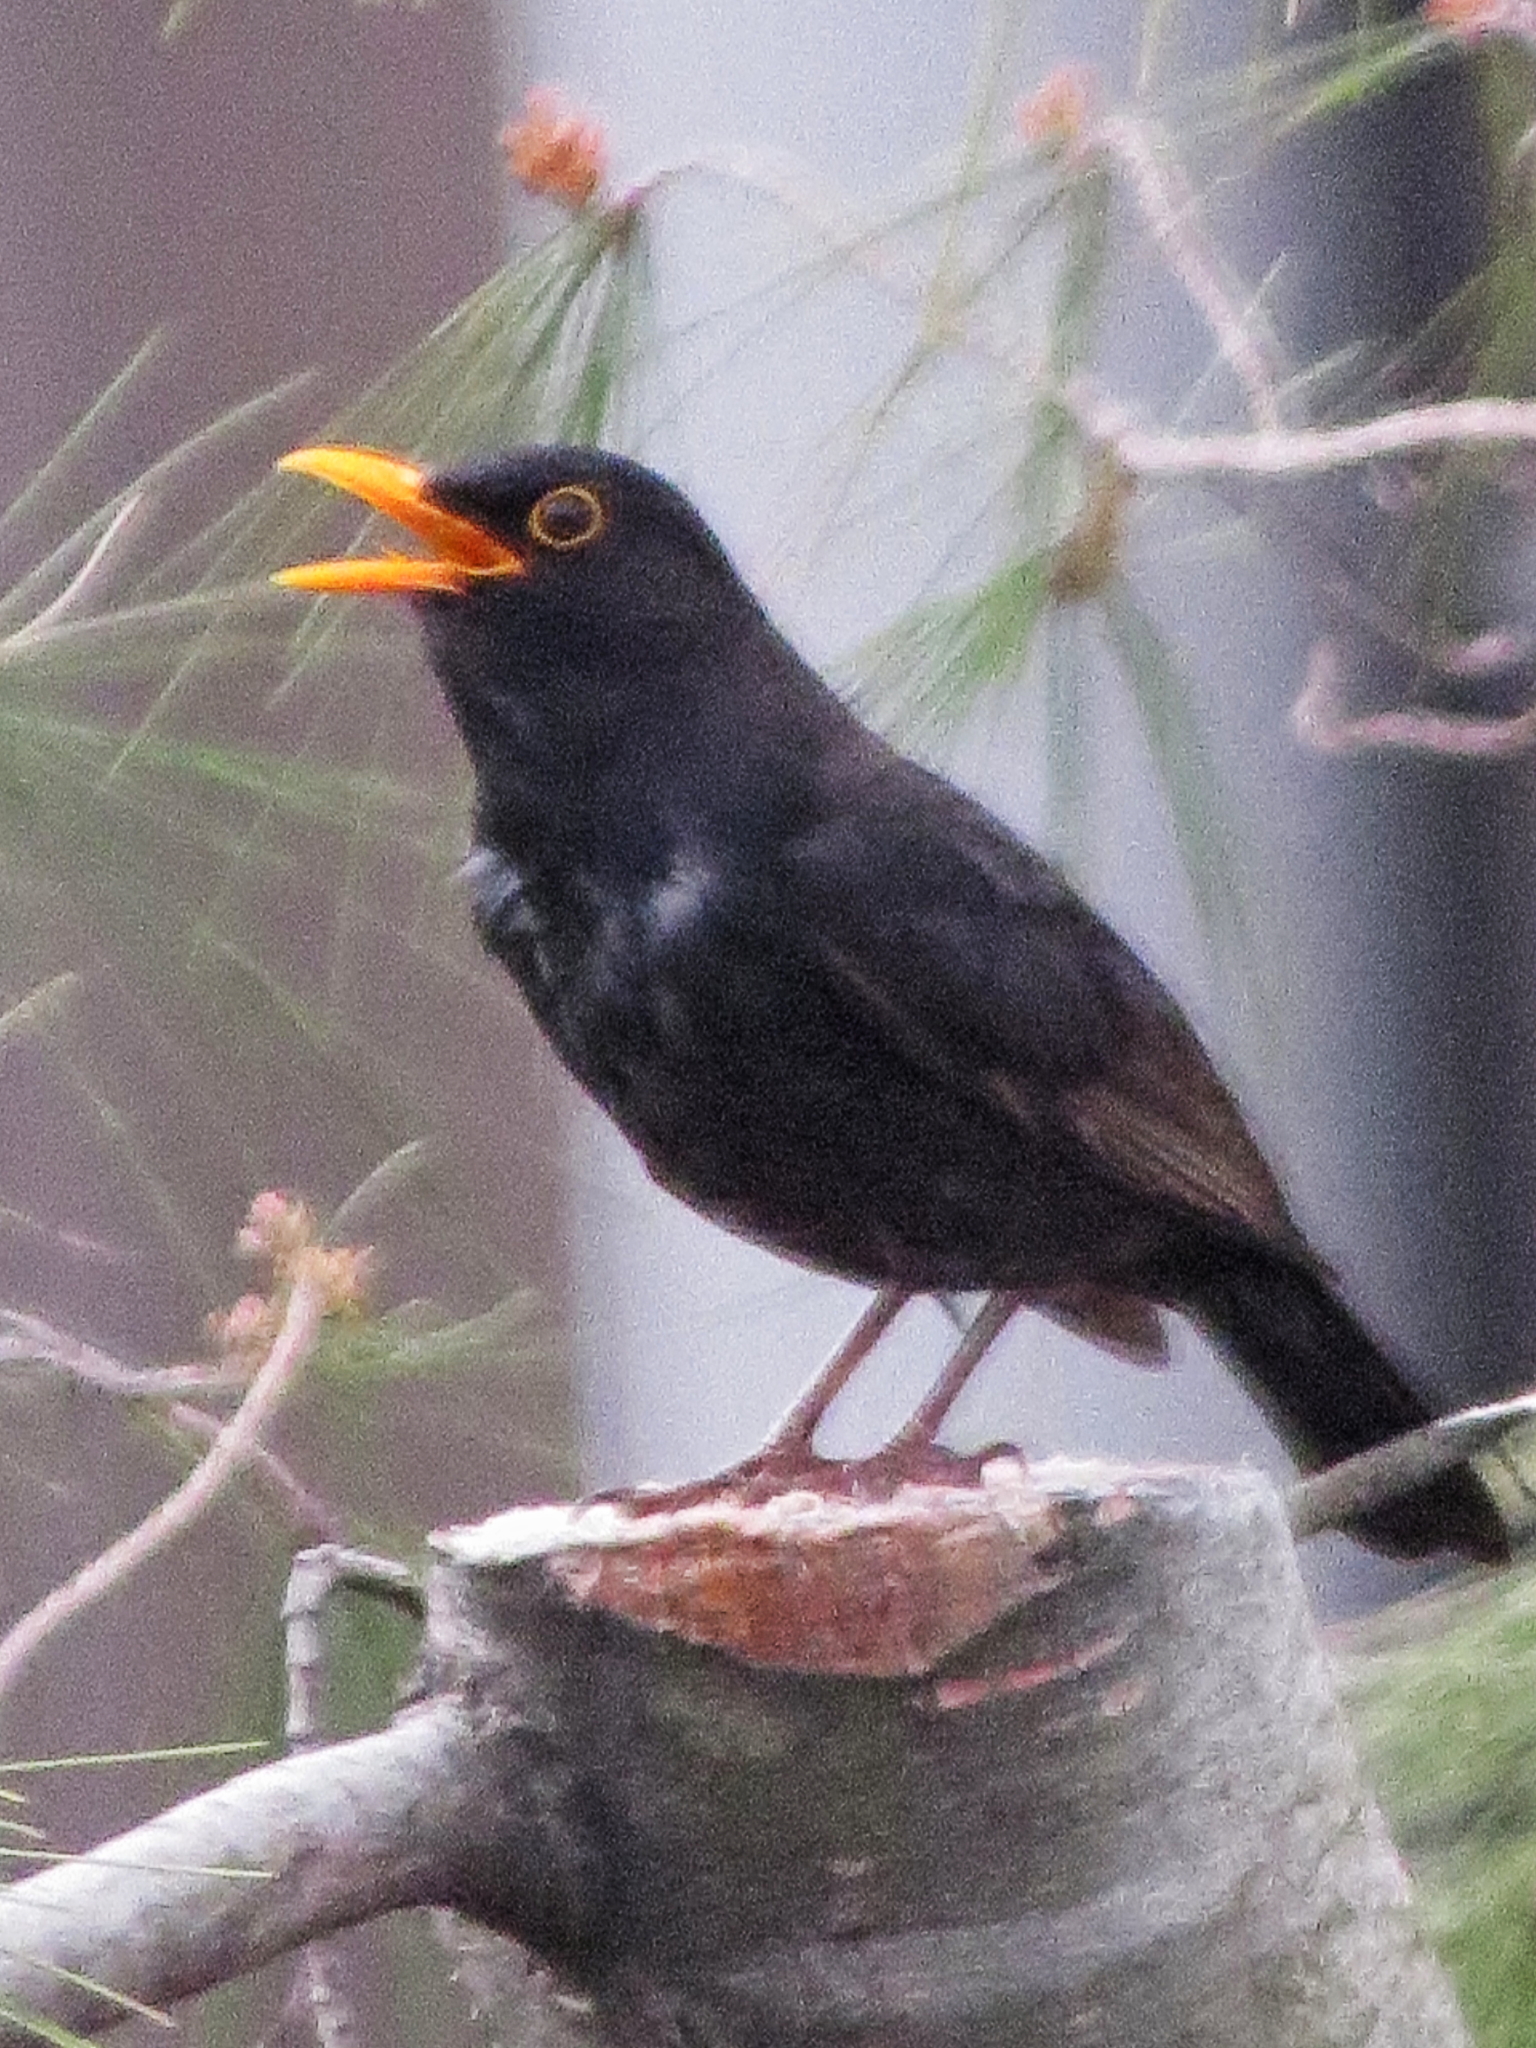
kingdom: Animalia
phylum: Chordata
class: Aves
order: Passeriformes
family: Turdidae
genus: Turdus
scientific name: Turdus merula
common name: Common blackbird
